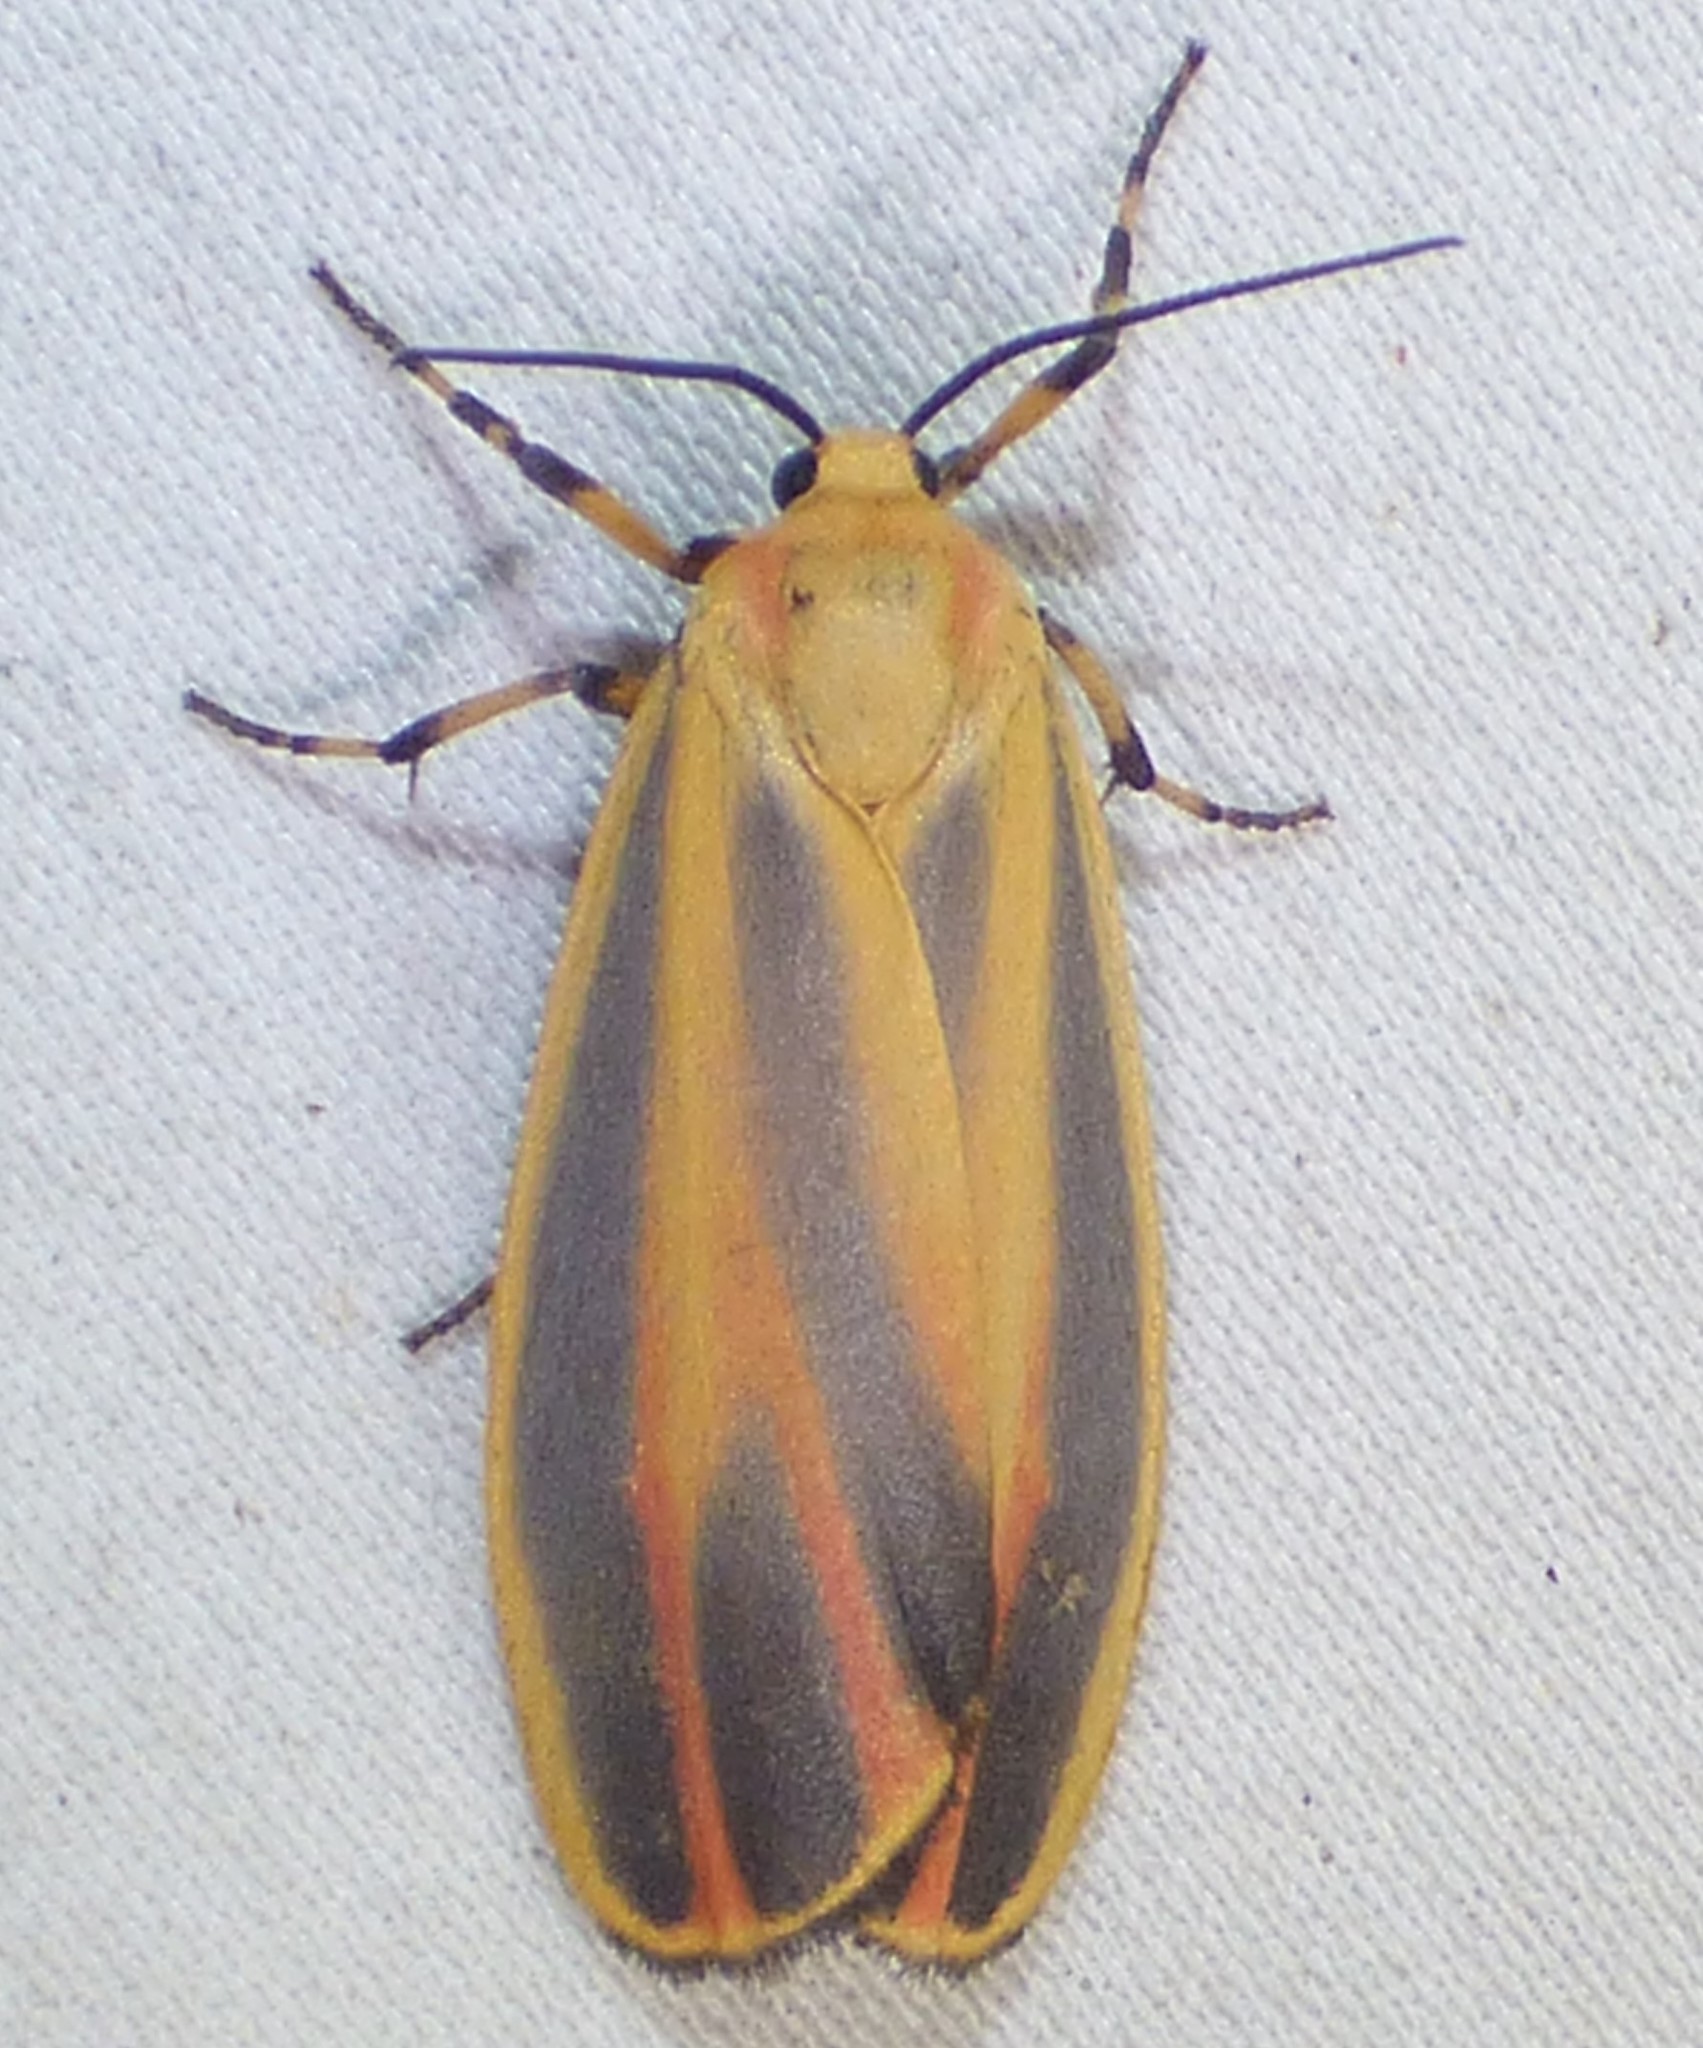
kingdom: Animalia
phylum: Arthropoda
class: Insecta
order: Lepidoptera
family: Erebidae
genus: Hypoprepia
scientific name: Hypoprepia fucosa
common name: Painted lichen moth
